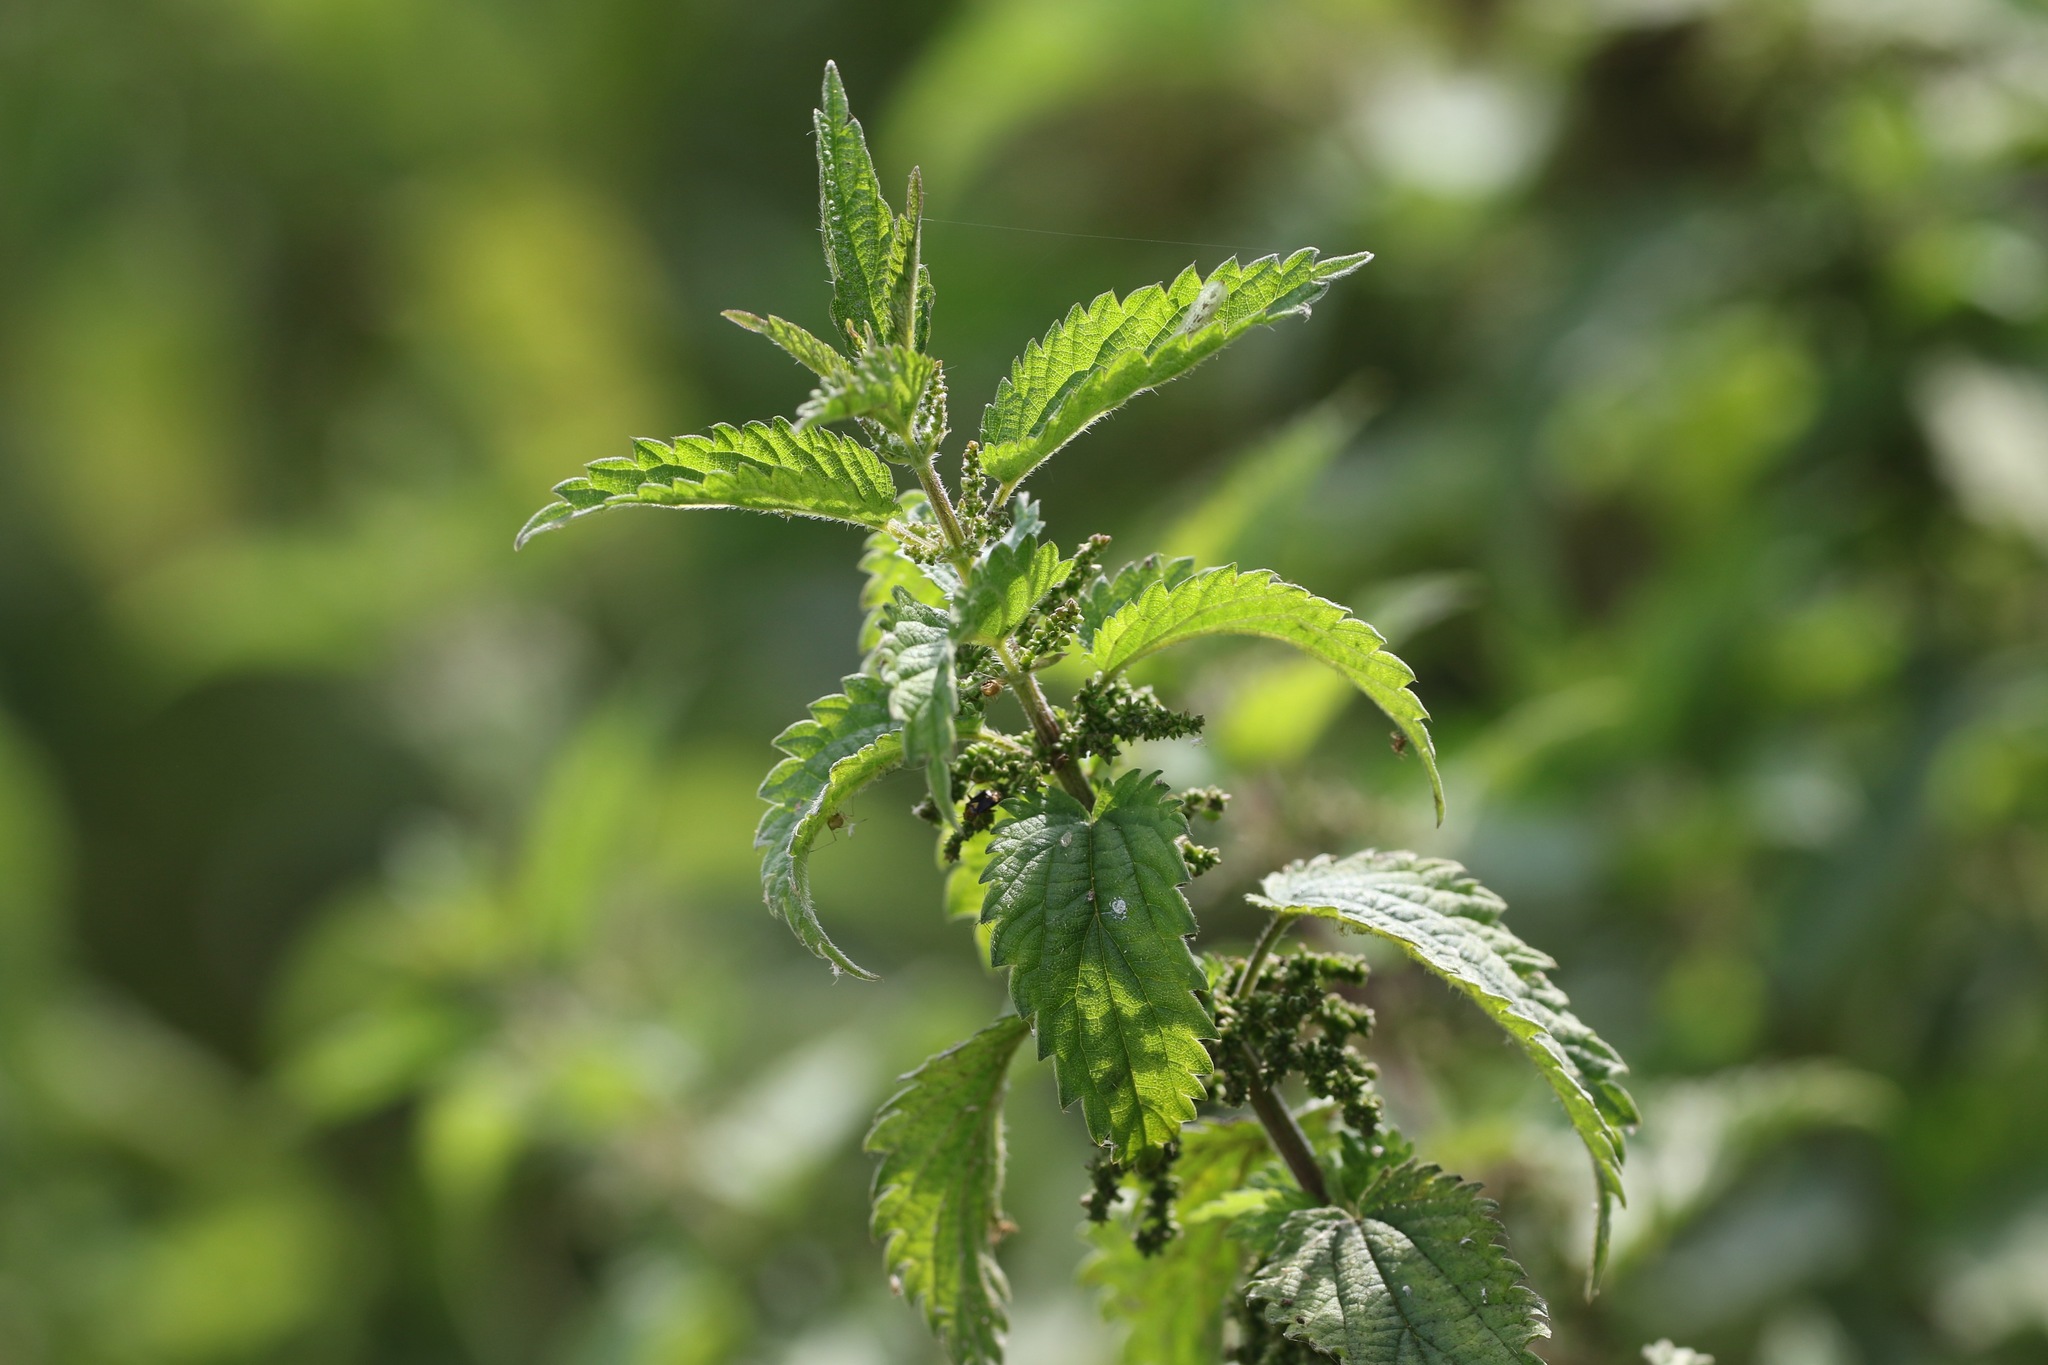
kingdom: Plantae
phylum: Tracheophyta
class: Magnoliopsida
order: Rosales
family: Urticaceae
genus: Urtica
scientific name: Urtica dioica
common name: Common nettle
